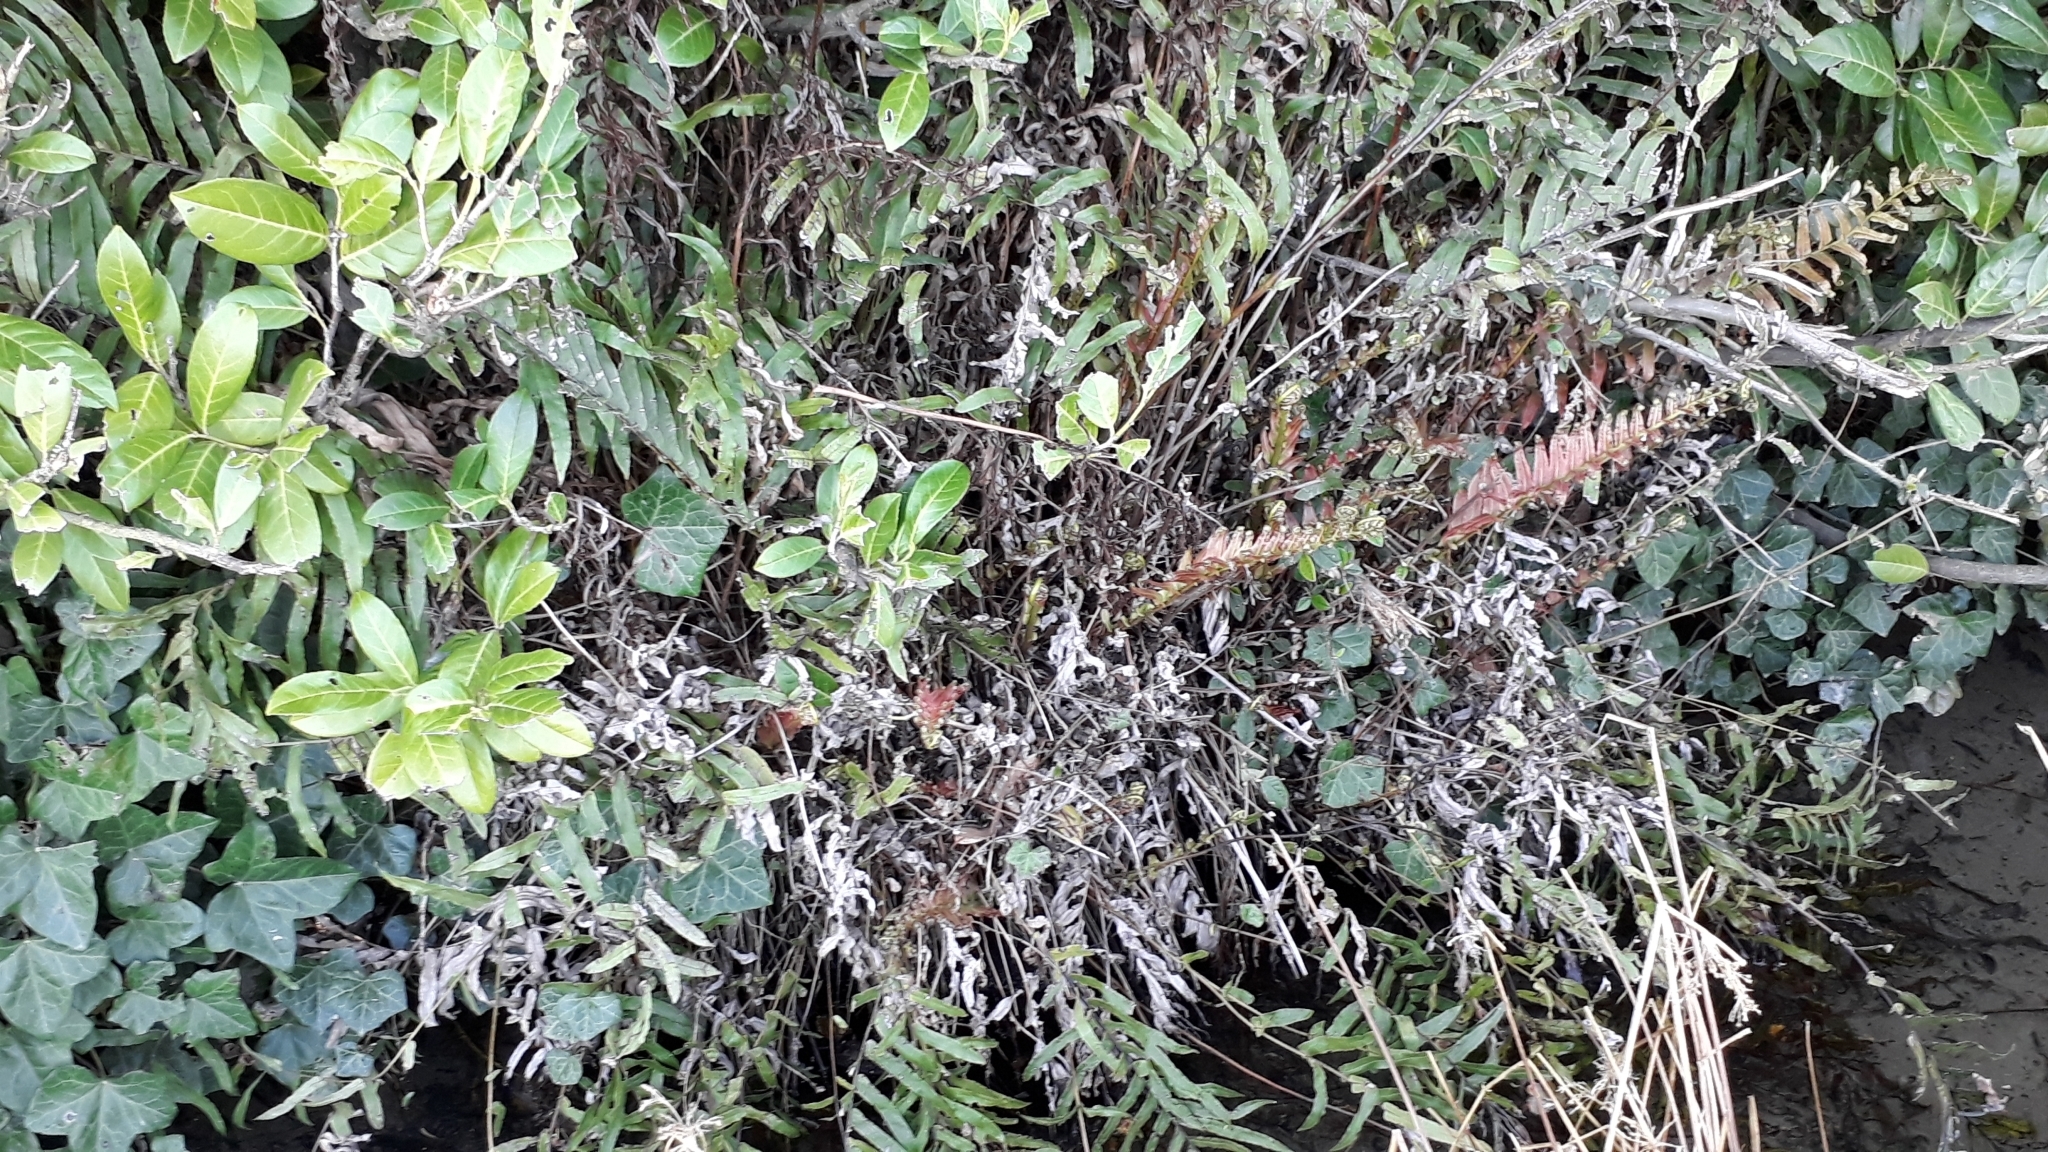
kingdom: Plantae
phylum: Tracheophyta
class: Polypodiopsida
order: Polypodiales
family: Blechnaceae
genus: Parablechnum
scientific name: Parablechnum minus
